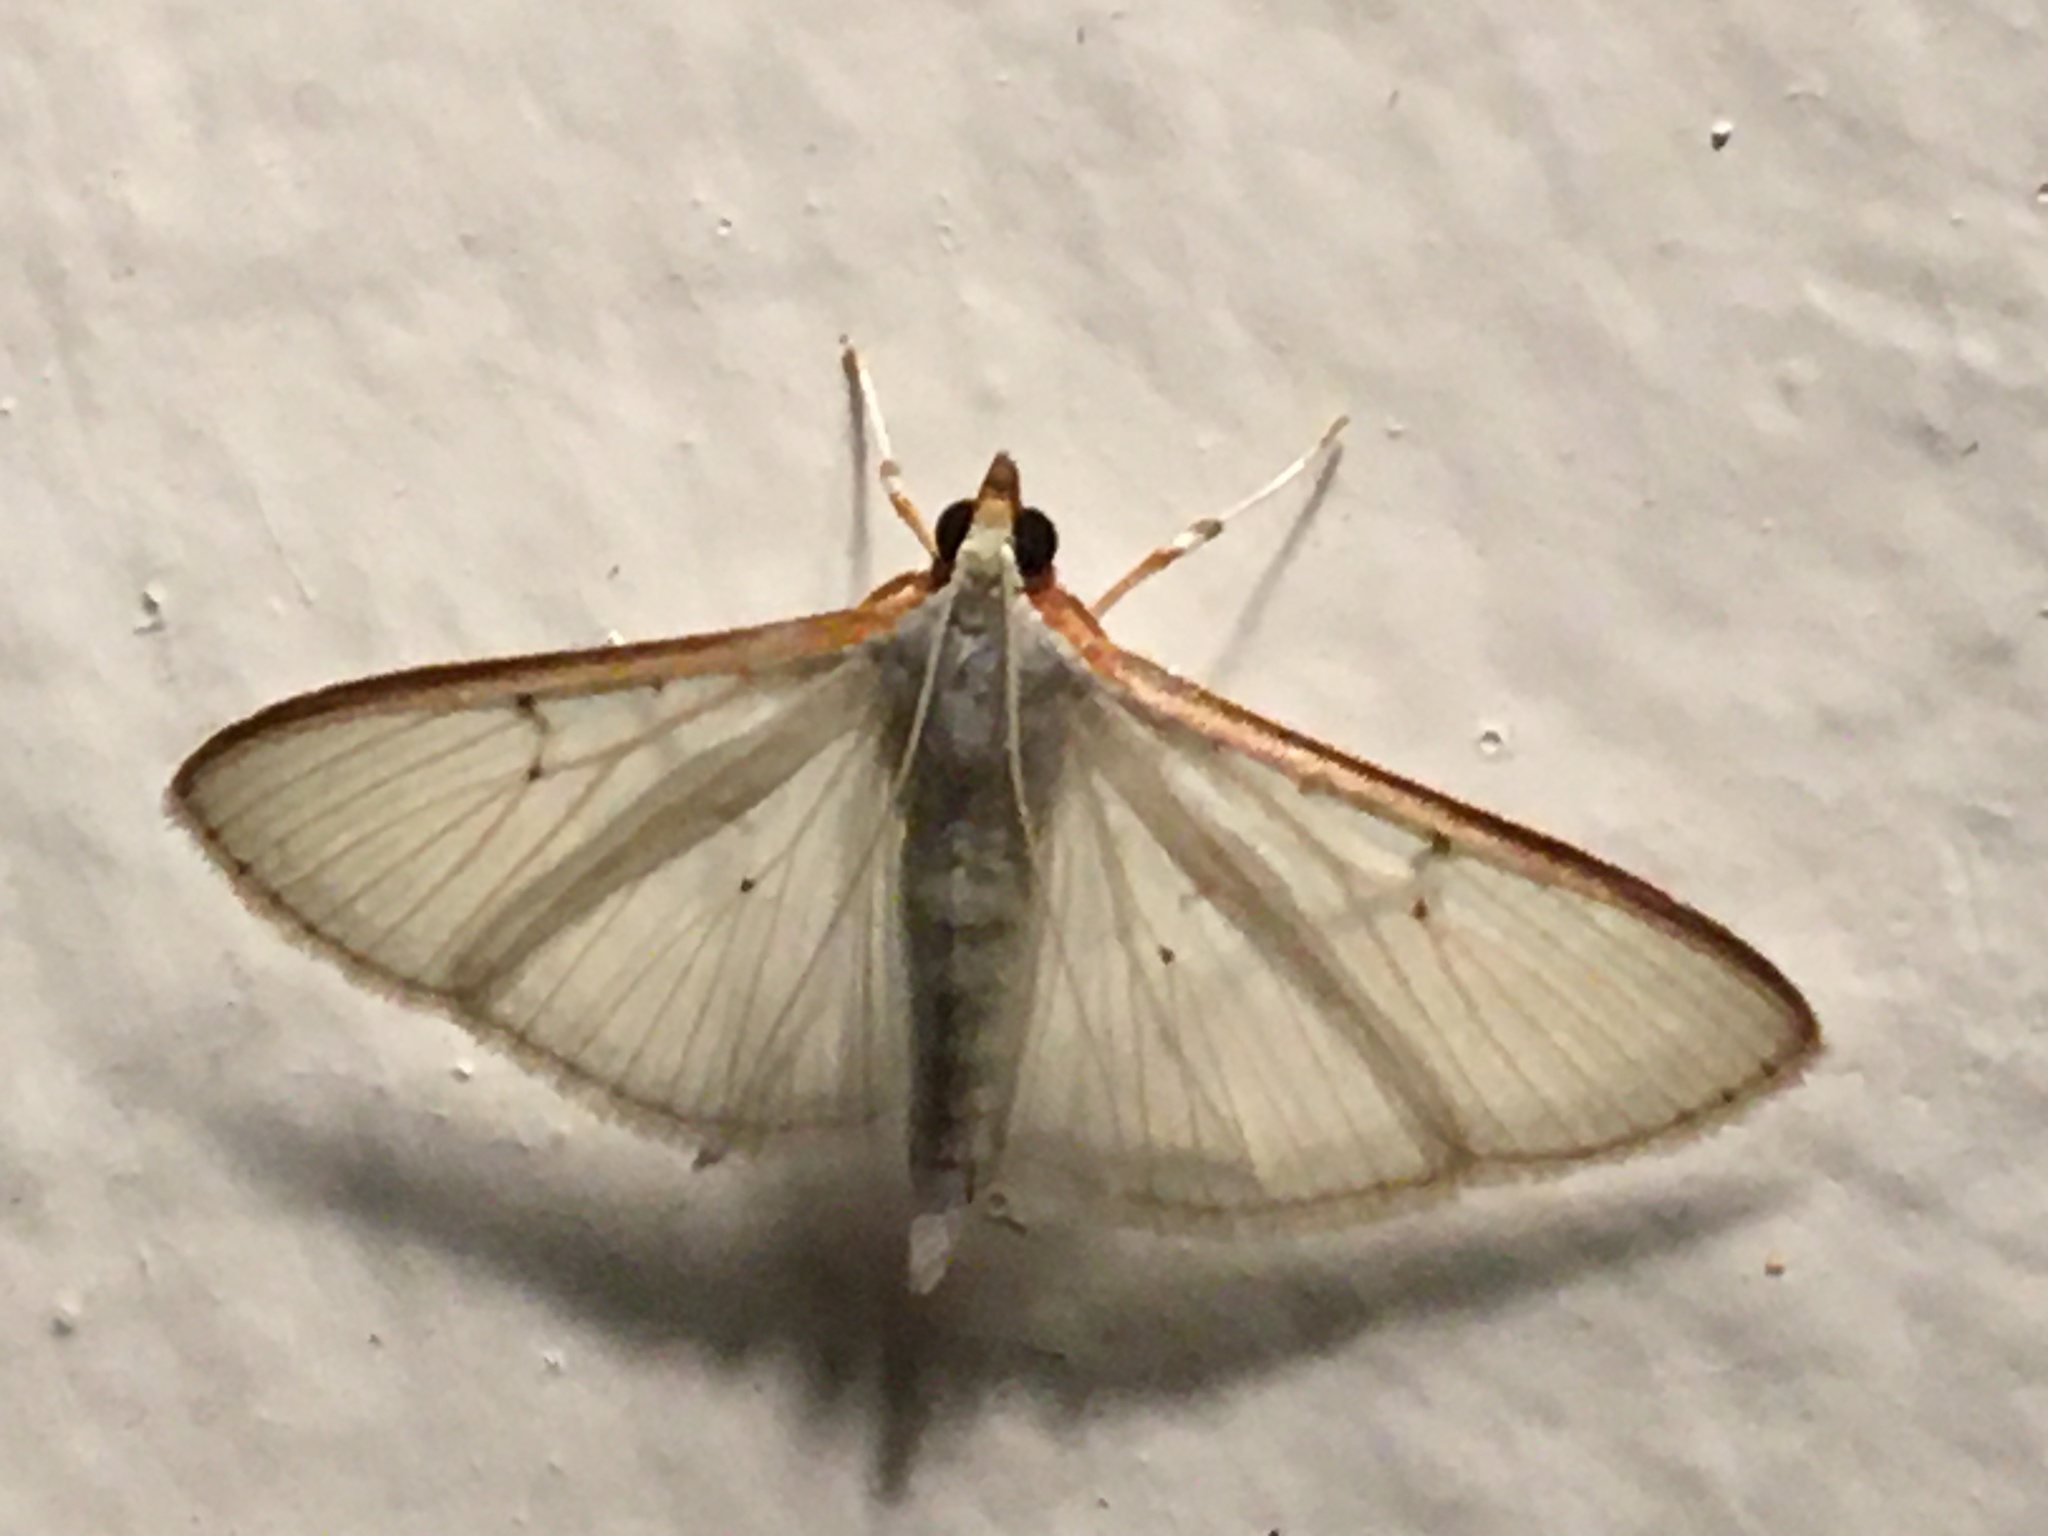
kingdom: Animalia
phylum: Arthropoda
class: Insecta
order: Lepidoptera
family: Crambidae
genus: Palpita
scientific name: Palpita quadristigmalis
